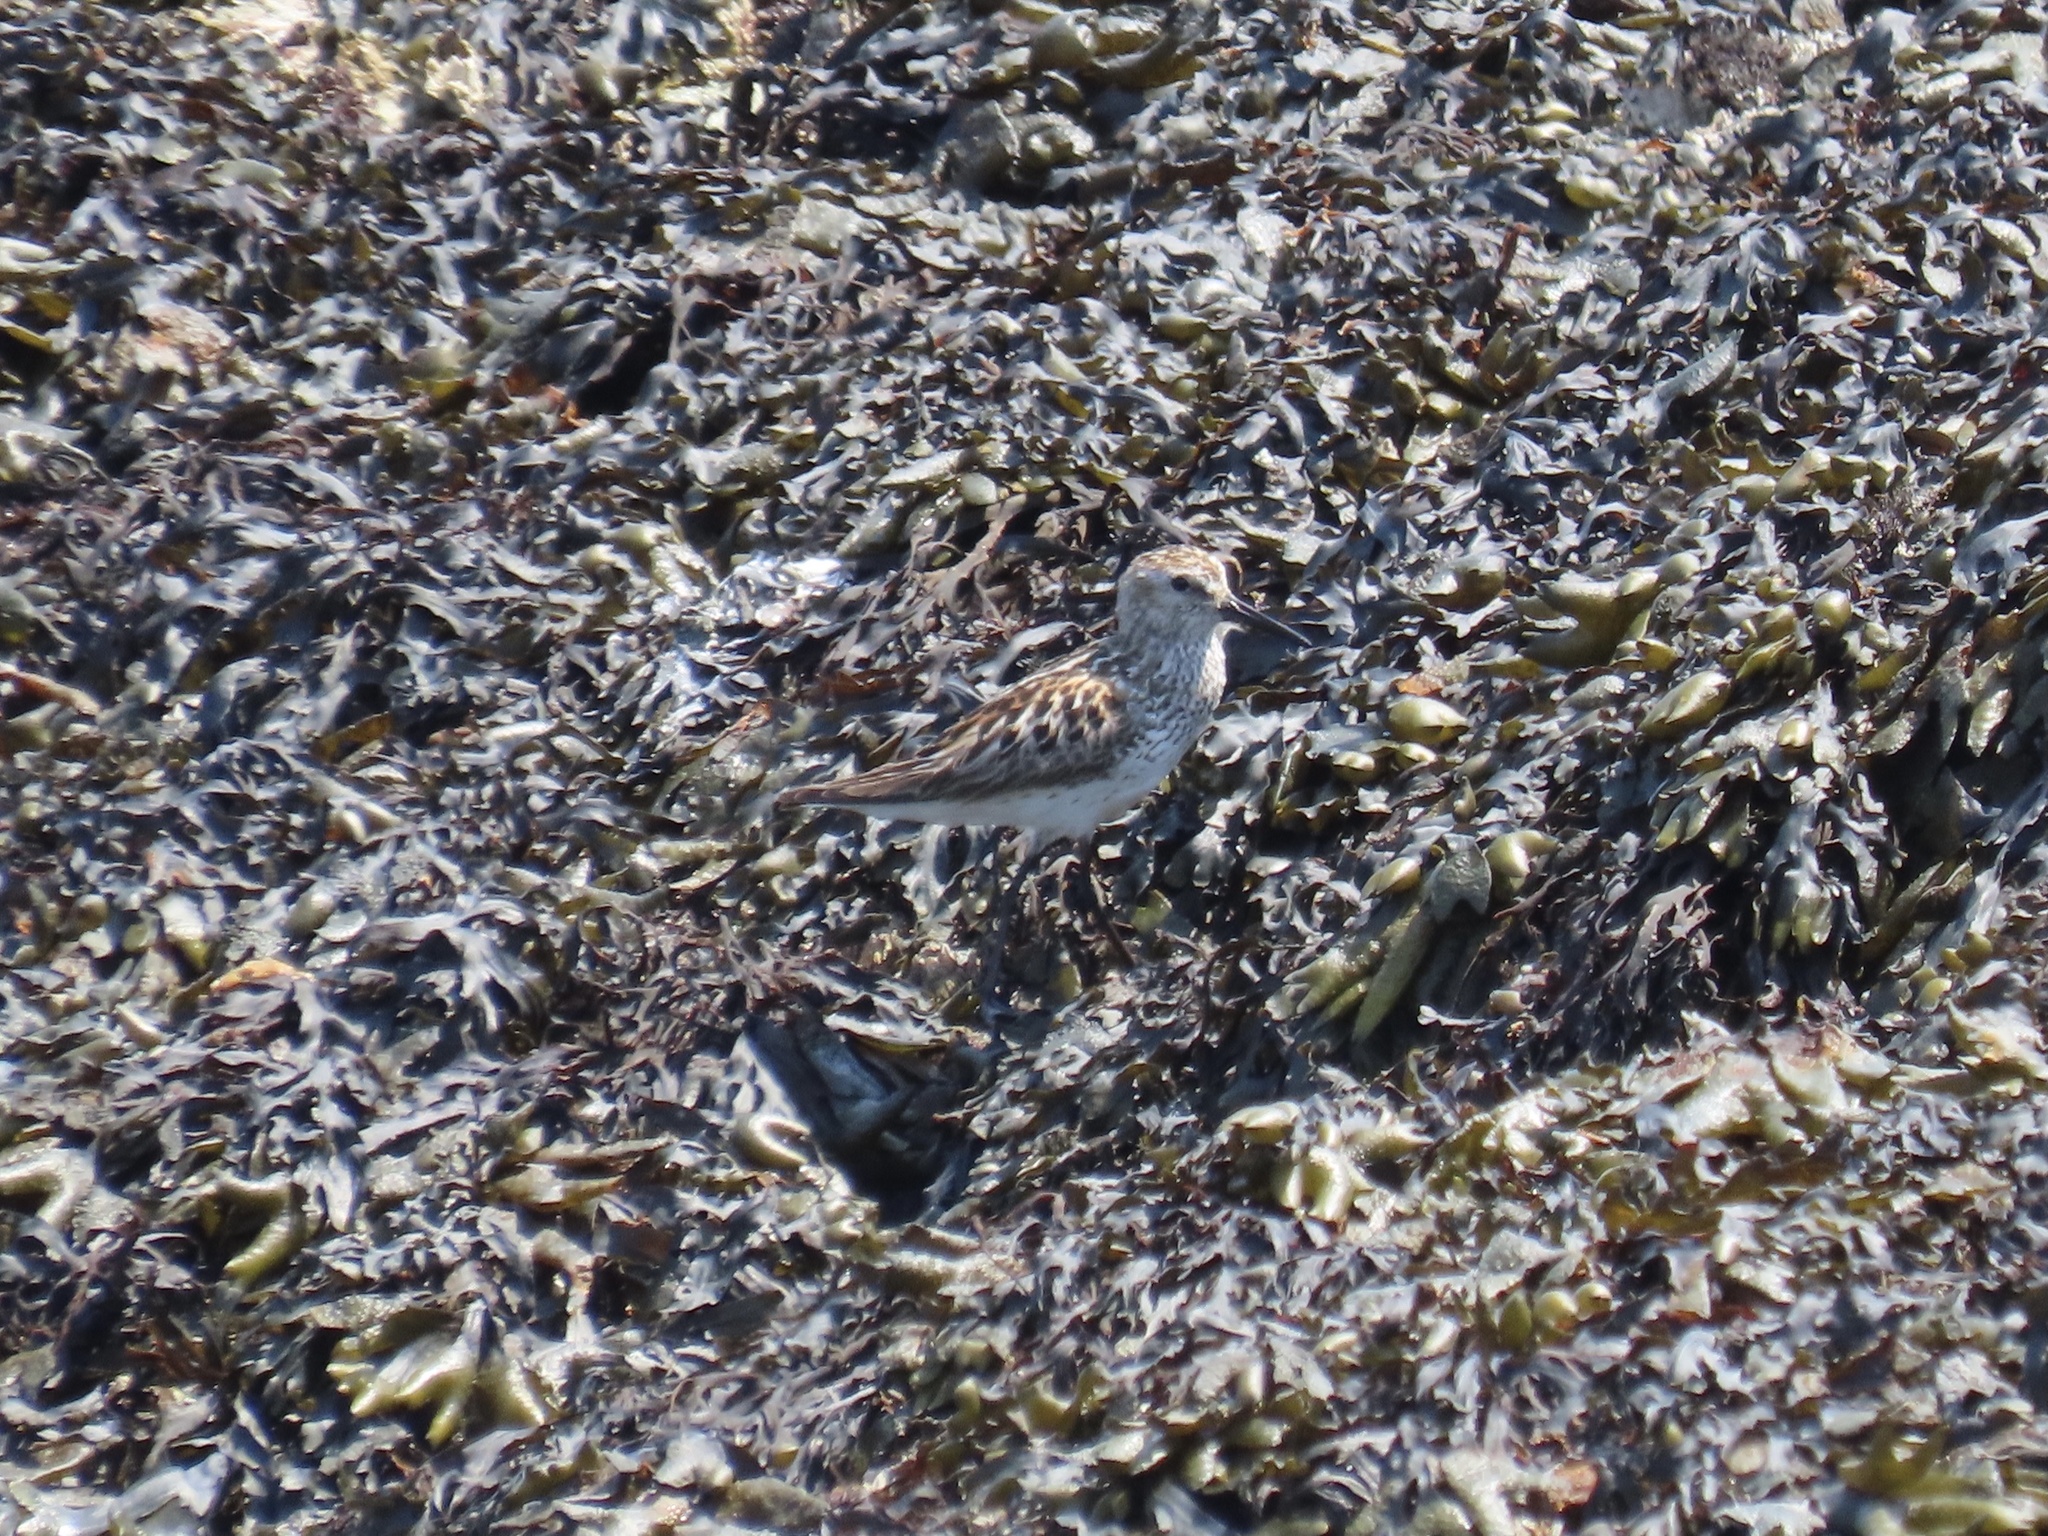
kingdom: Animalia
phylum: Chordata
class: Aves
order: Charadriiformes
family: Scolopacidae
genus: Calidris
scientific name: Calidris mauri
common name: Western sandpiper
